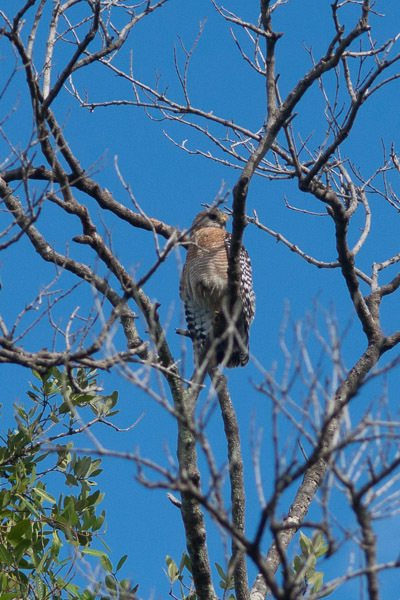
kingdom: Animalia
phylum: Chordata
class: Aves
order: Accipitriformes
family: Accipitridae
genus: Buteo
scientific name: Buteo lineatus
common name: Red-shouldered hawk
